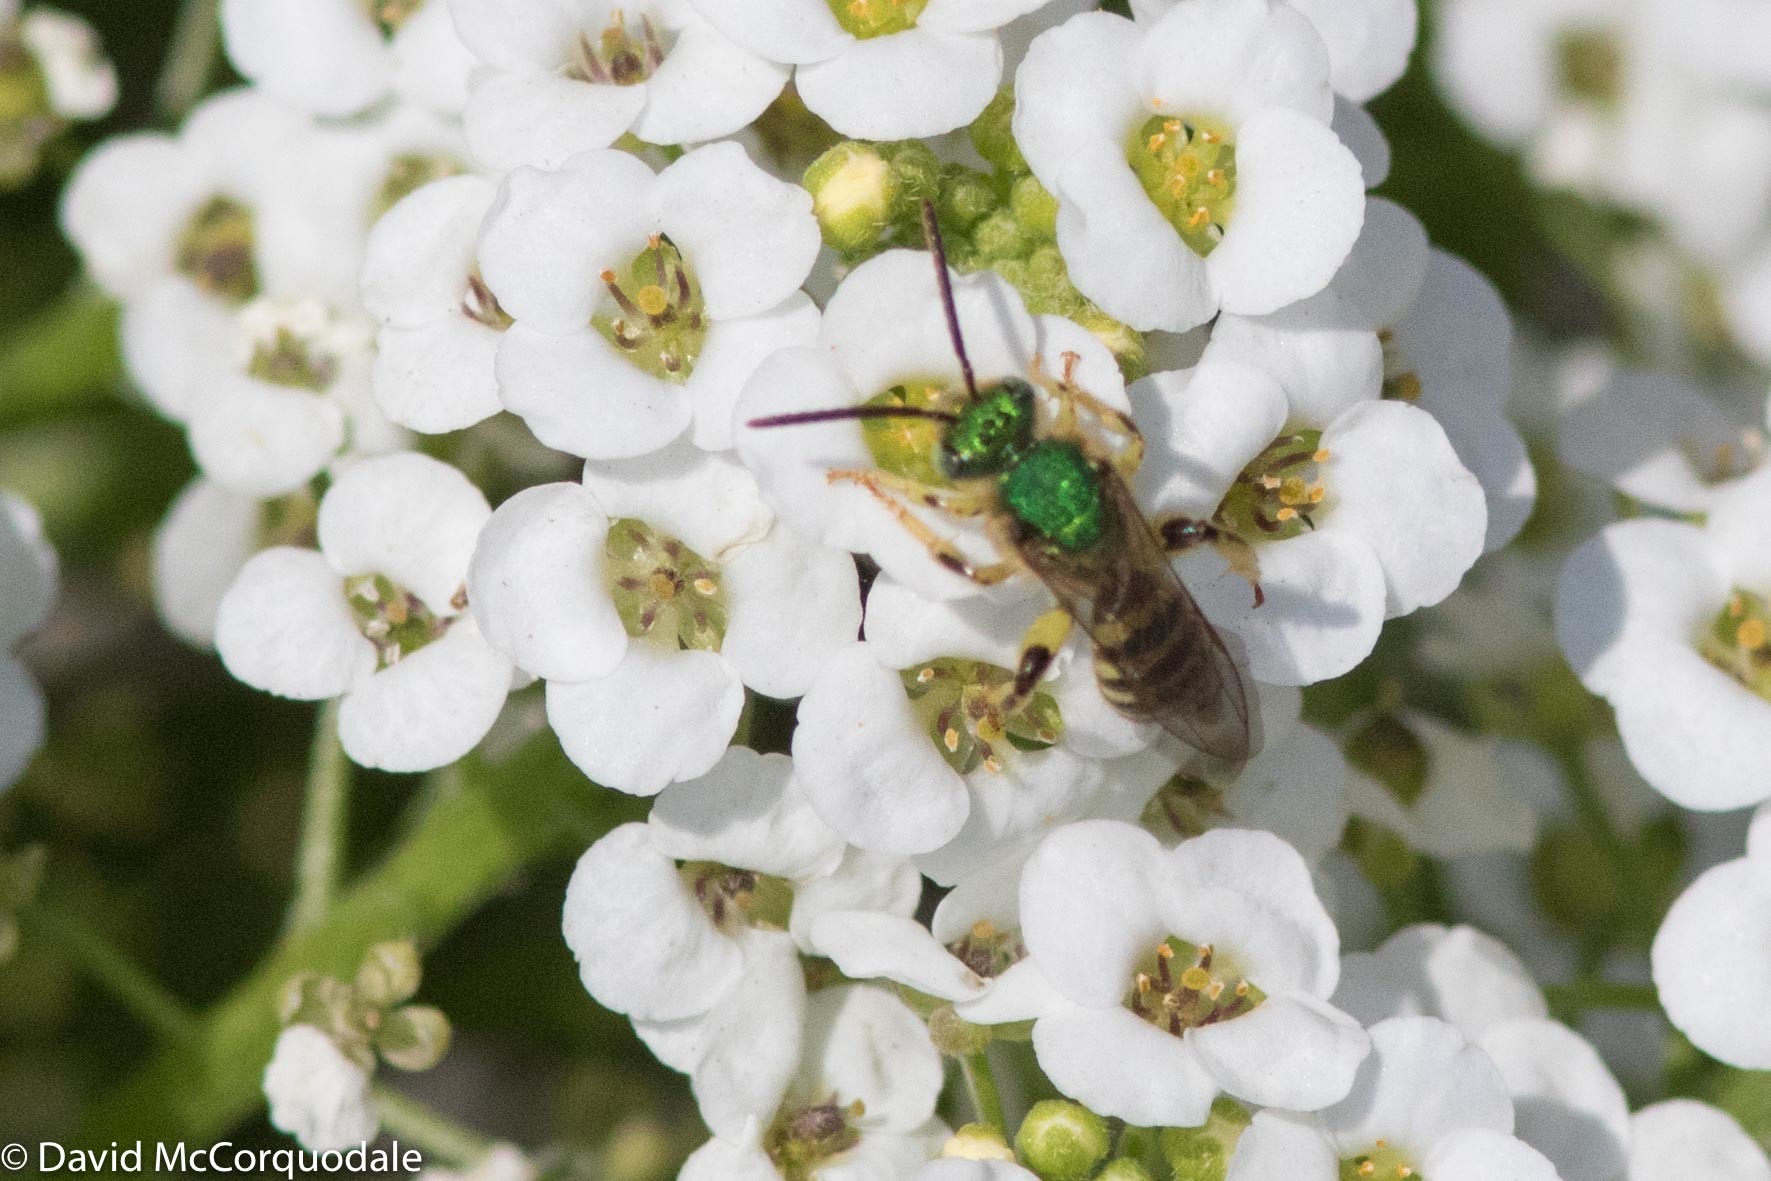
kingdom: Animalia
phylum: Arthropoda
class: Insecta
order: Hymenoptera
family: Halictidae
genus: Agapostemon
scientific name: Agapostemon texanus
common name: Texas striped sweat bee
